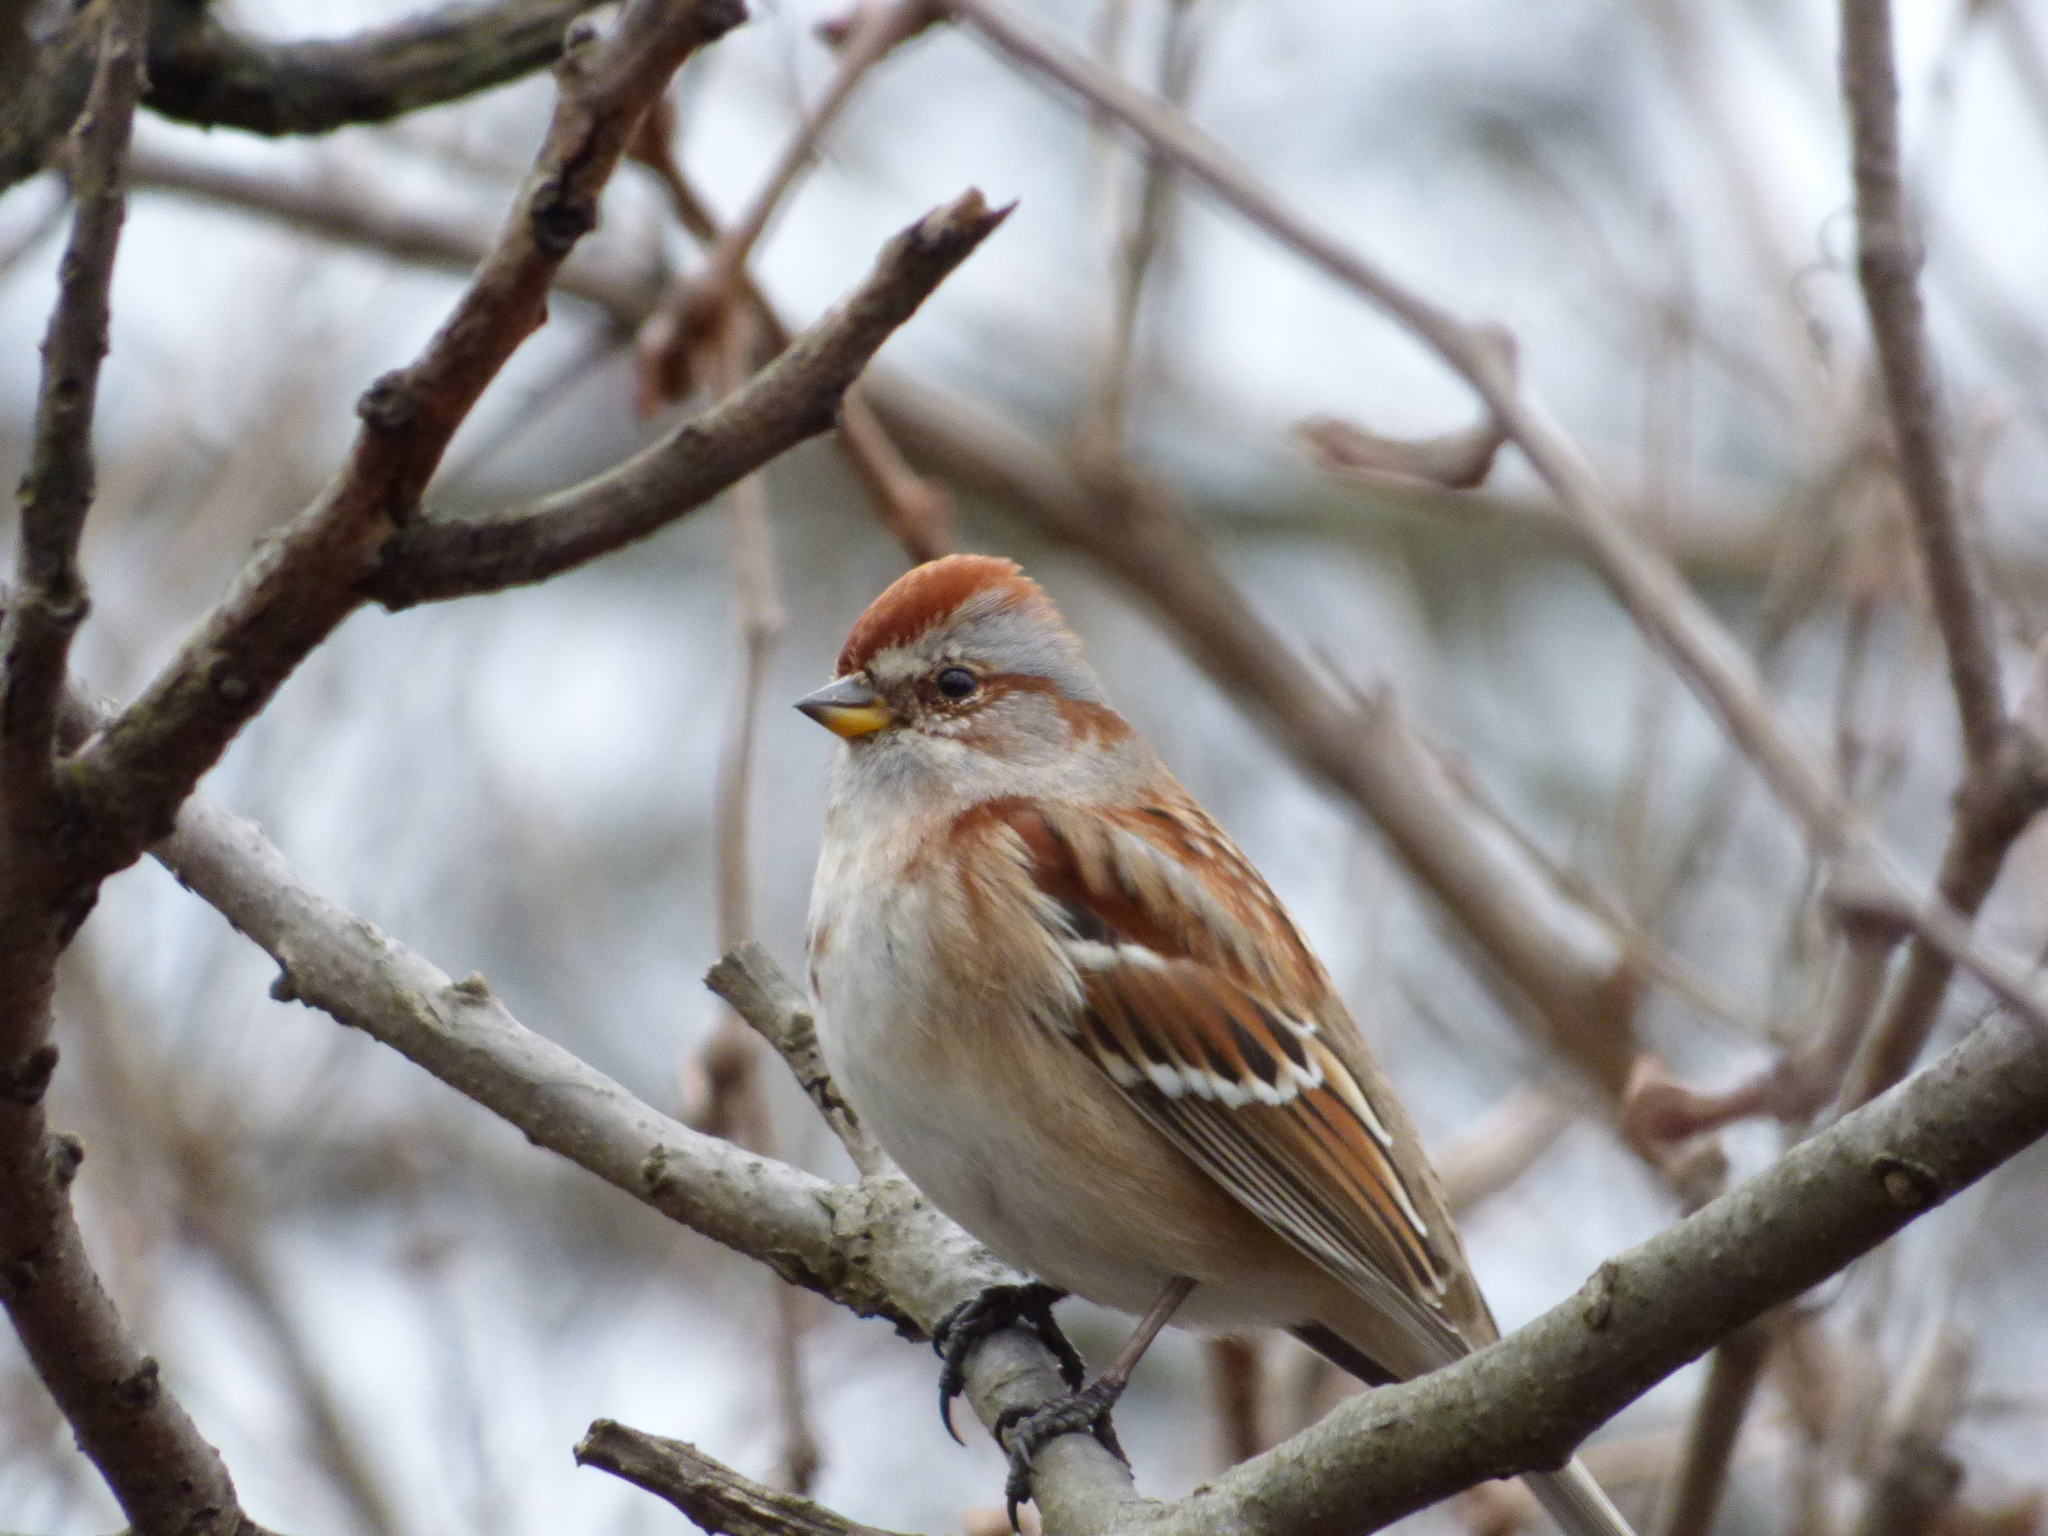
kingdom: Animalia
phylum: Chordata
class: Aves
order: Passeriformes
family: Passerellidae
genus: Spizelloides
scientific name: Spizelloides arborea
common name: American tree sparrow
